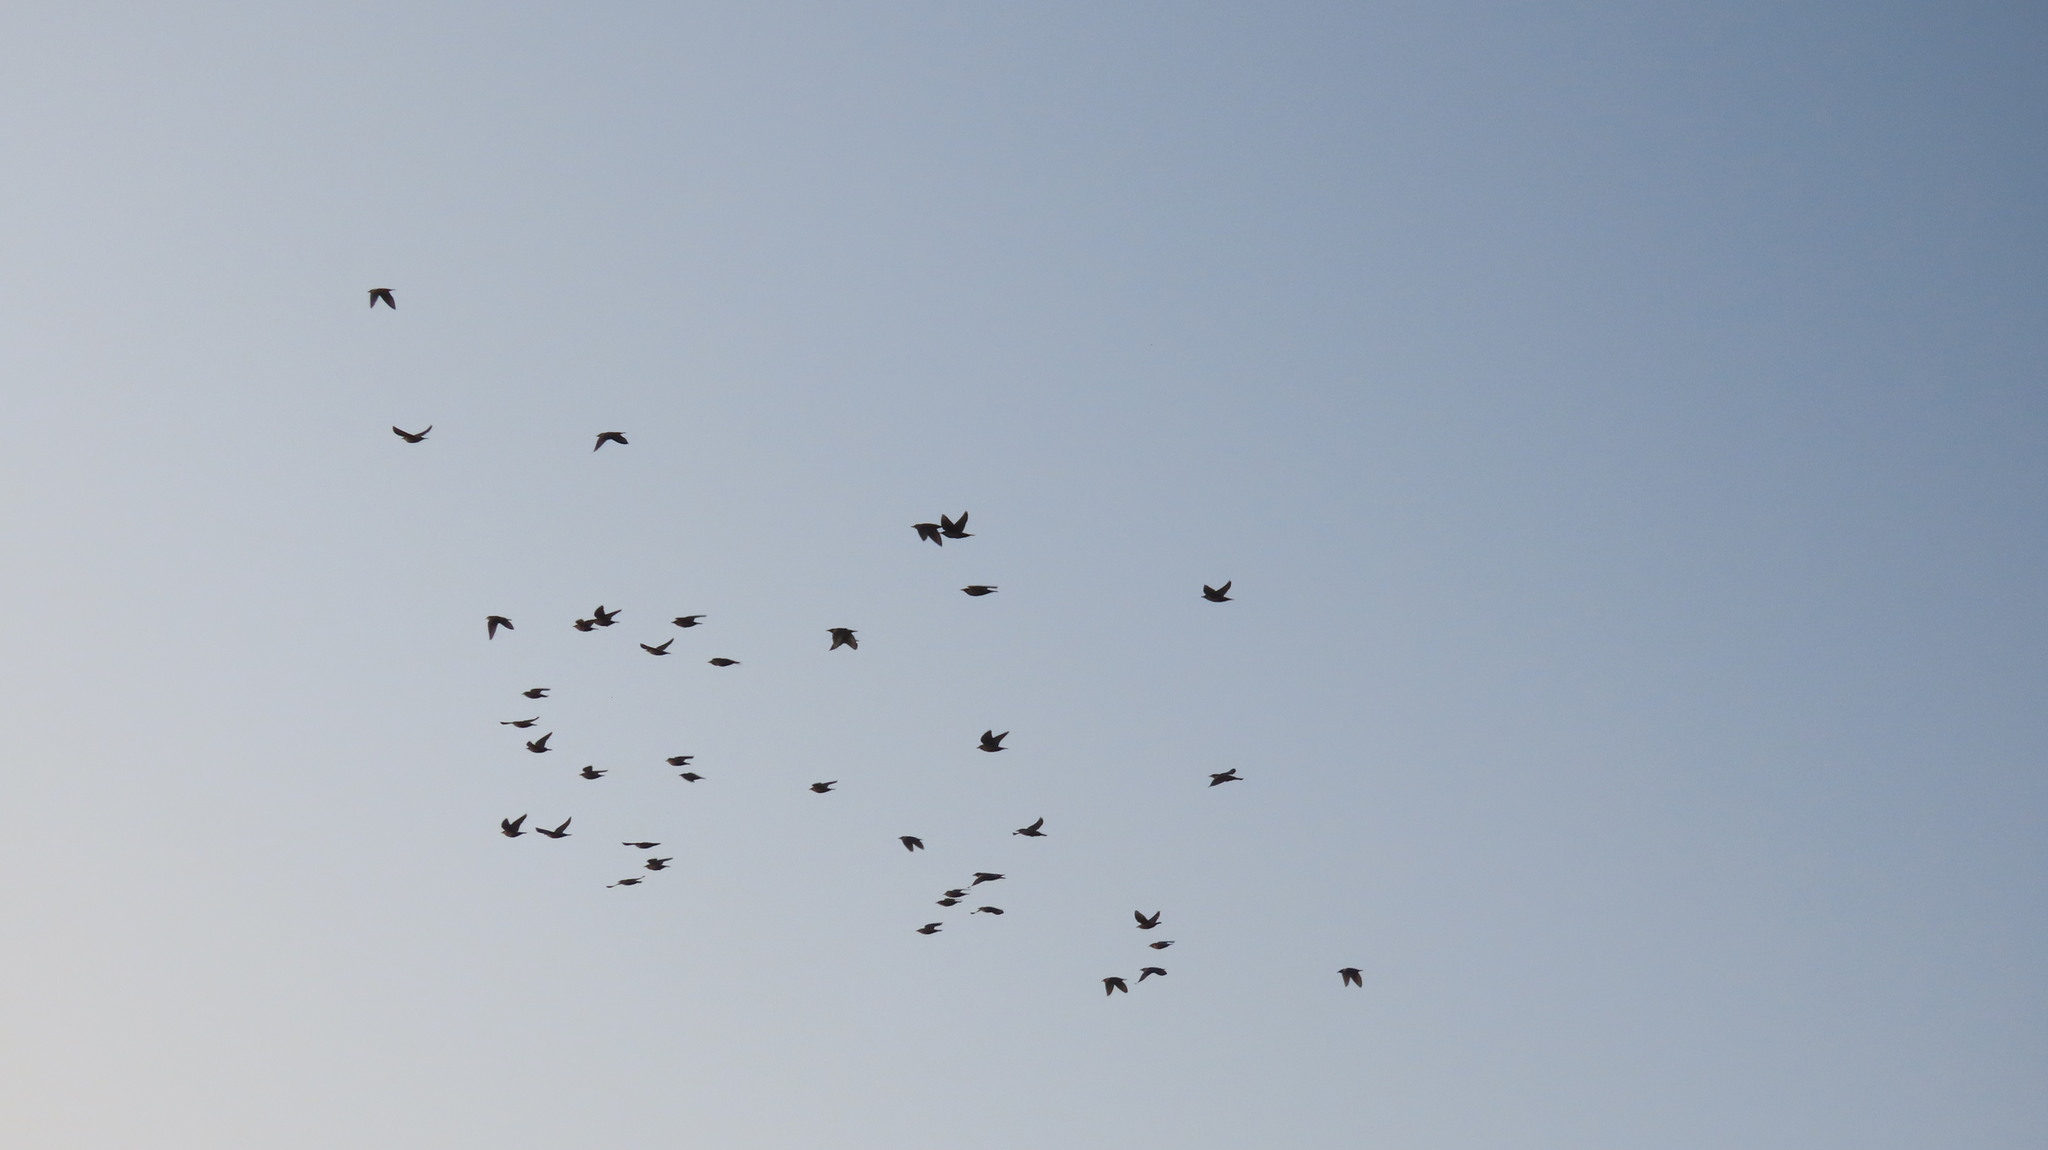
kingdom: Animalia
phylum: Chordata
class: Aves
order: Passeriformes
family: Sturnidae
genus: Pastor
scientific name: Pastor roseus
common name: Rosy starling
